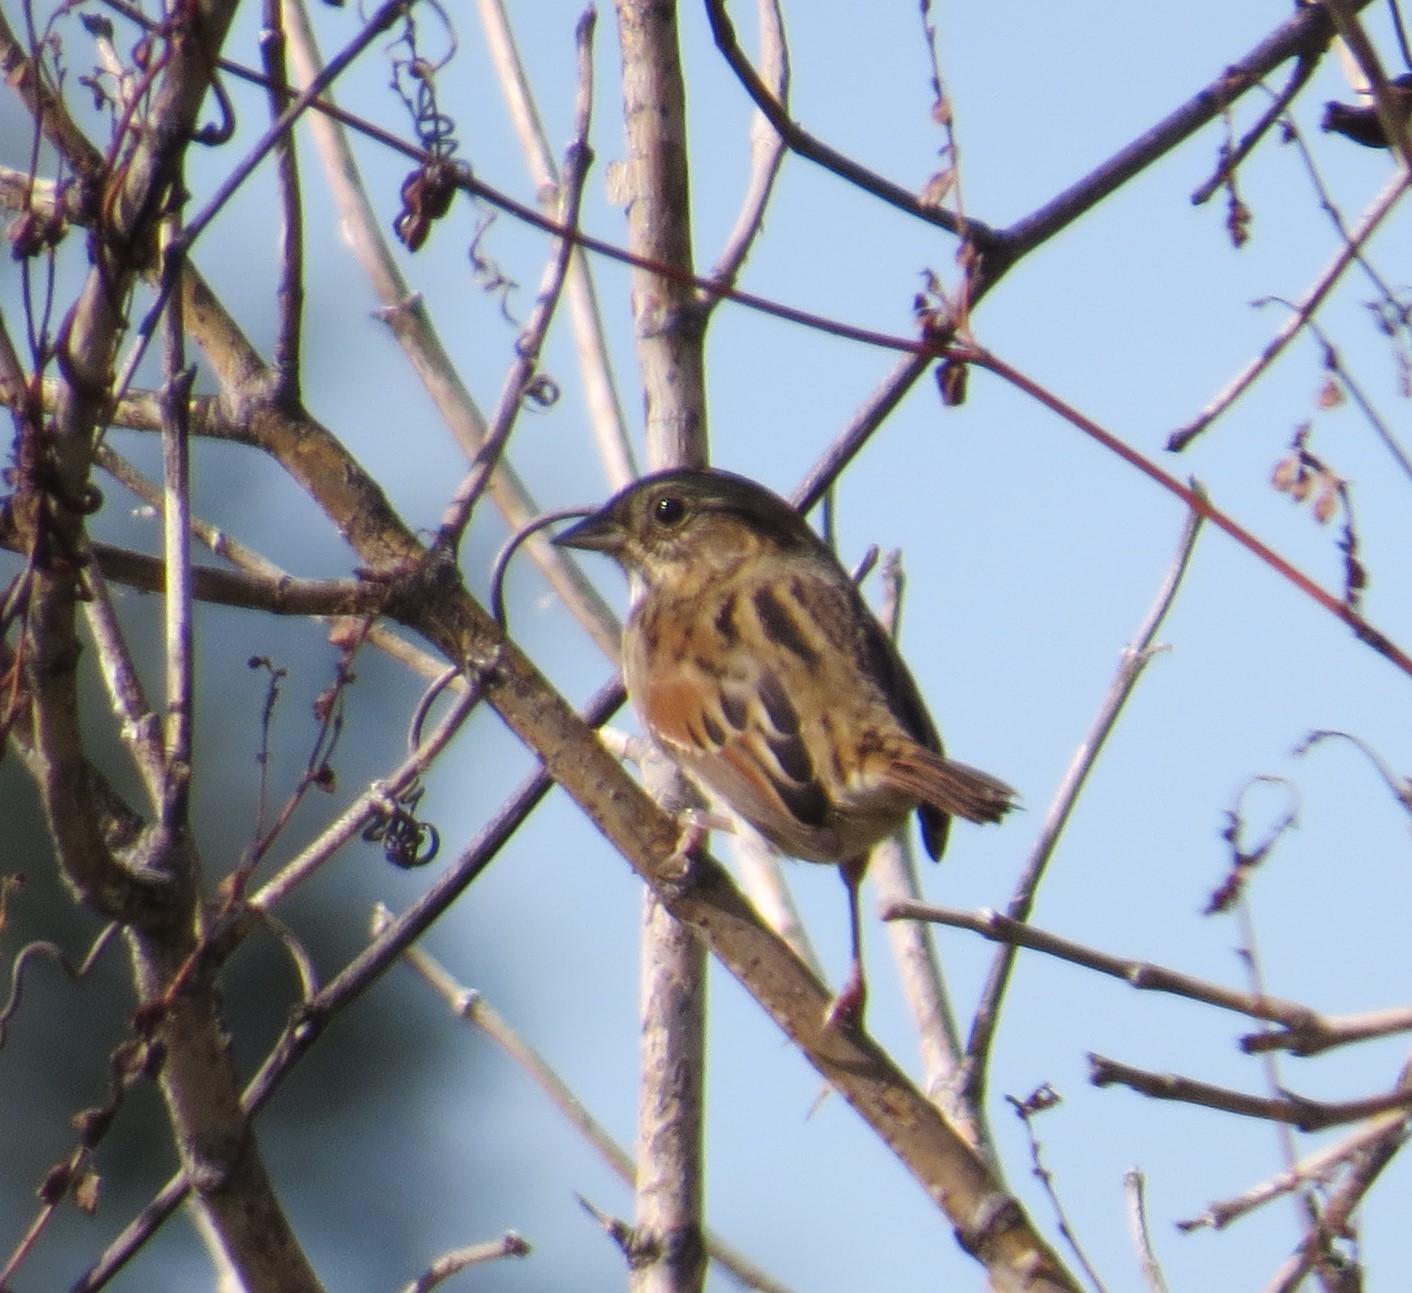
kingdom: Animalia
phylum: Chordata
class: Aves
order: Passeriformes
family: Passerellidae
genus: Melospiza
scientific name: Melospiza georgiana
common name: Swamp sparrow
